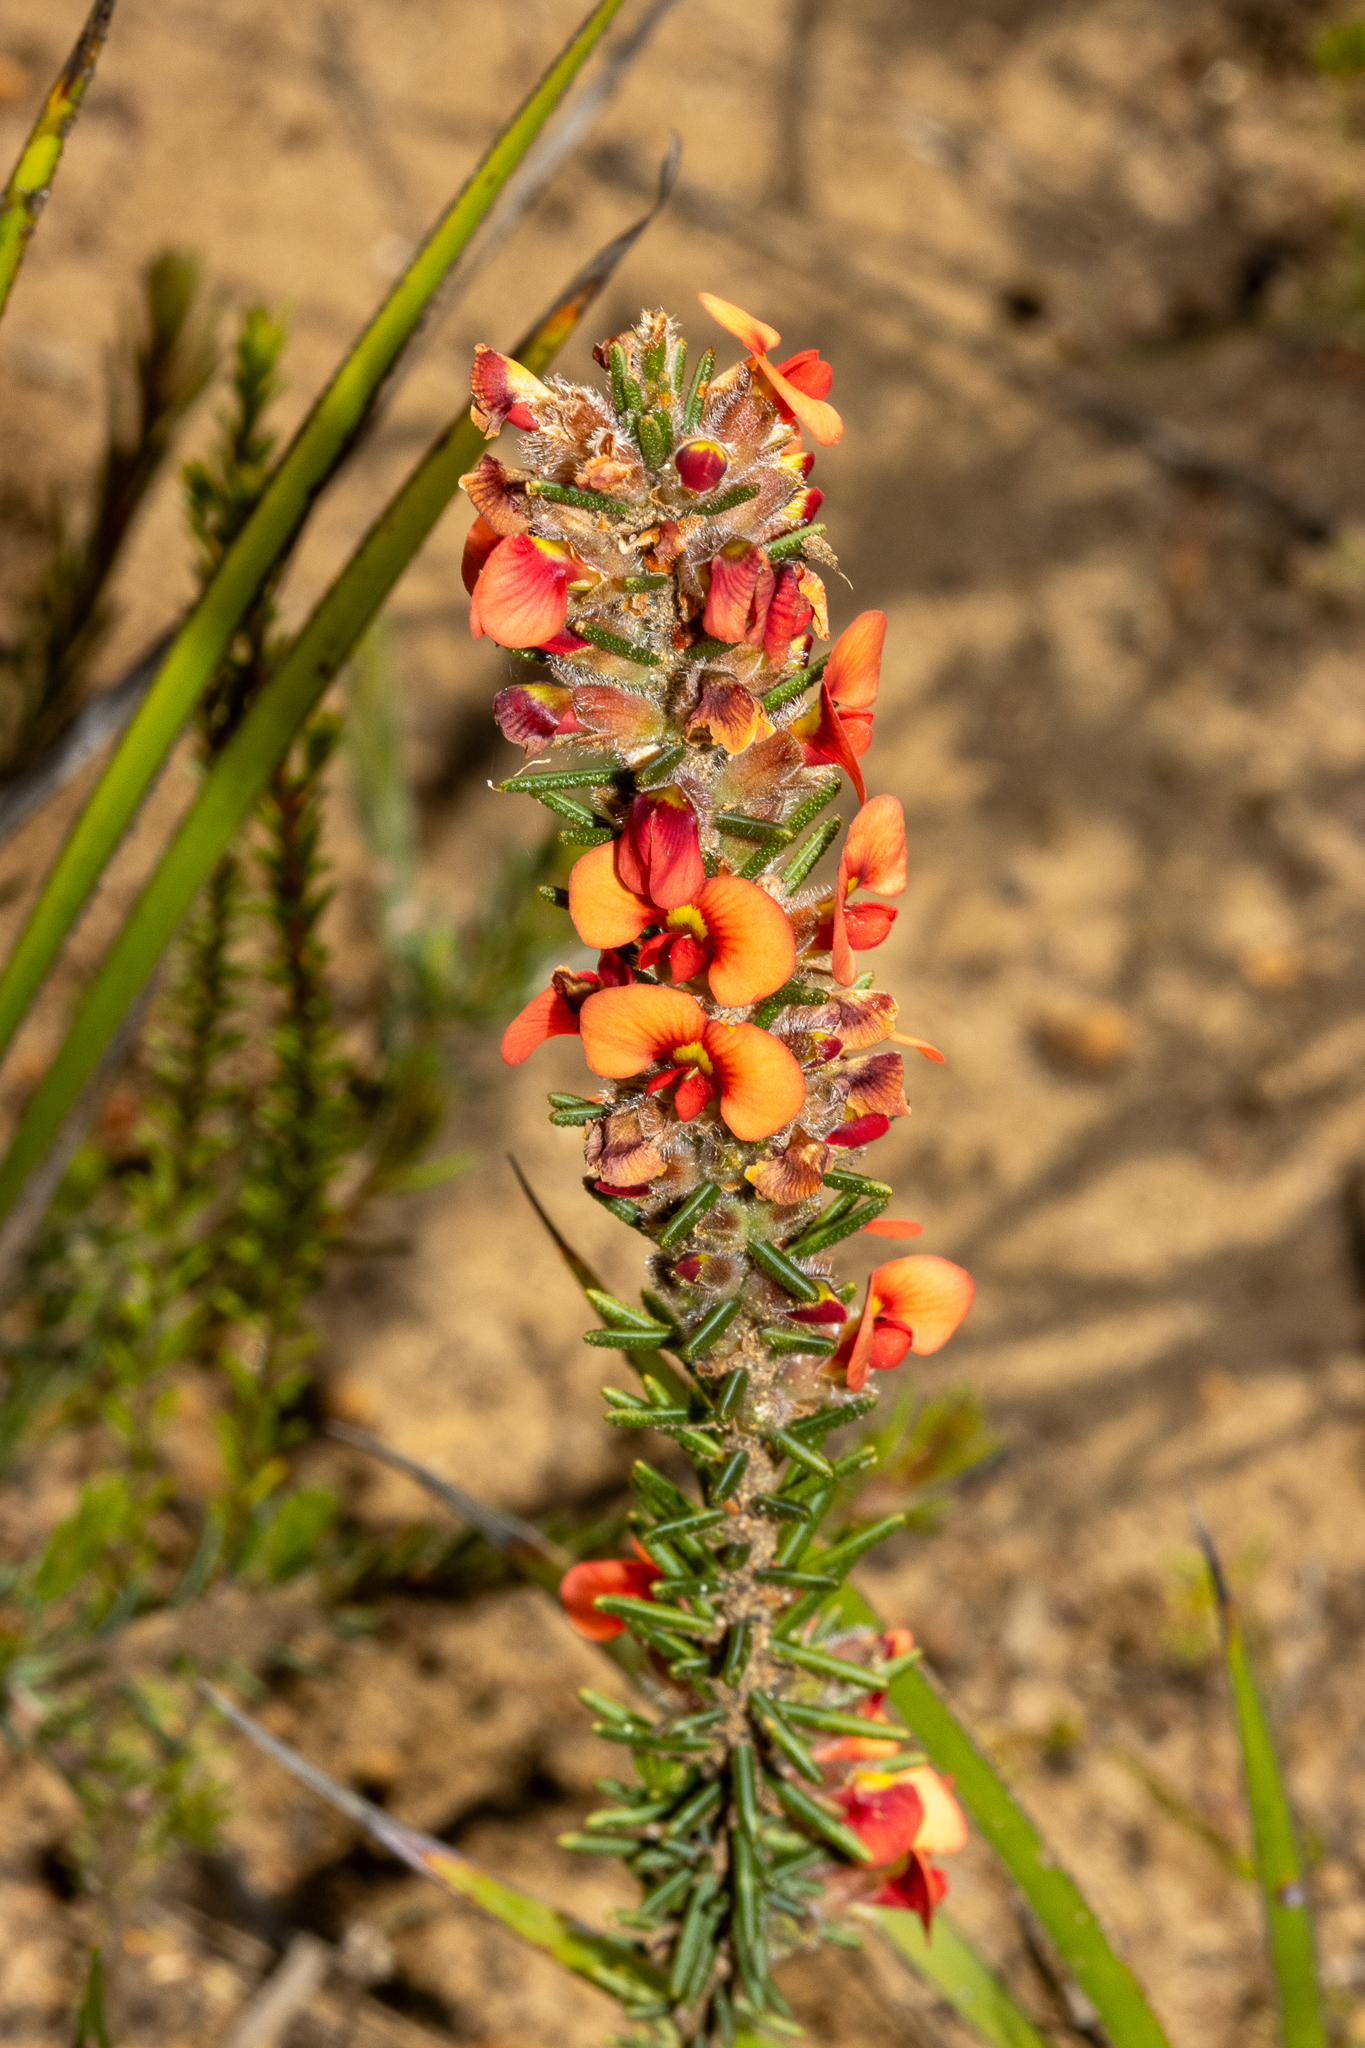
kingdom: Plantae
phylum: Tracheophyta
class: Magnoliopsida
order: Fabales
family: Fabaceae
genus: Dillwynia
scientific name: Dillwynia sericea
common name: Showy parrot-pea
